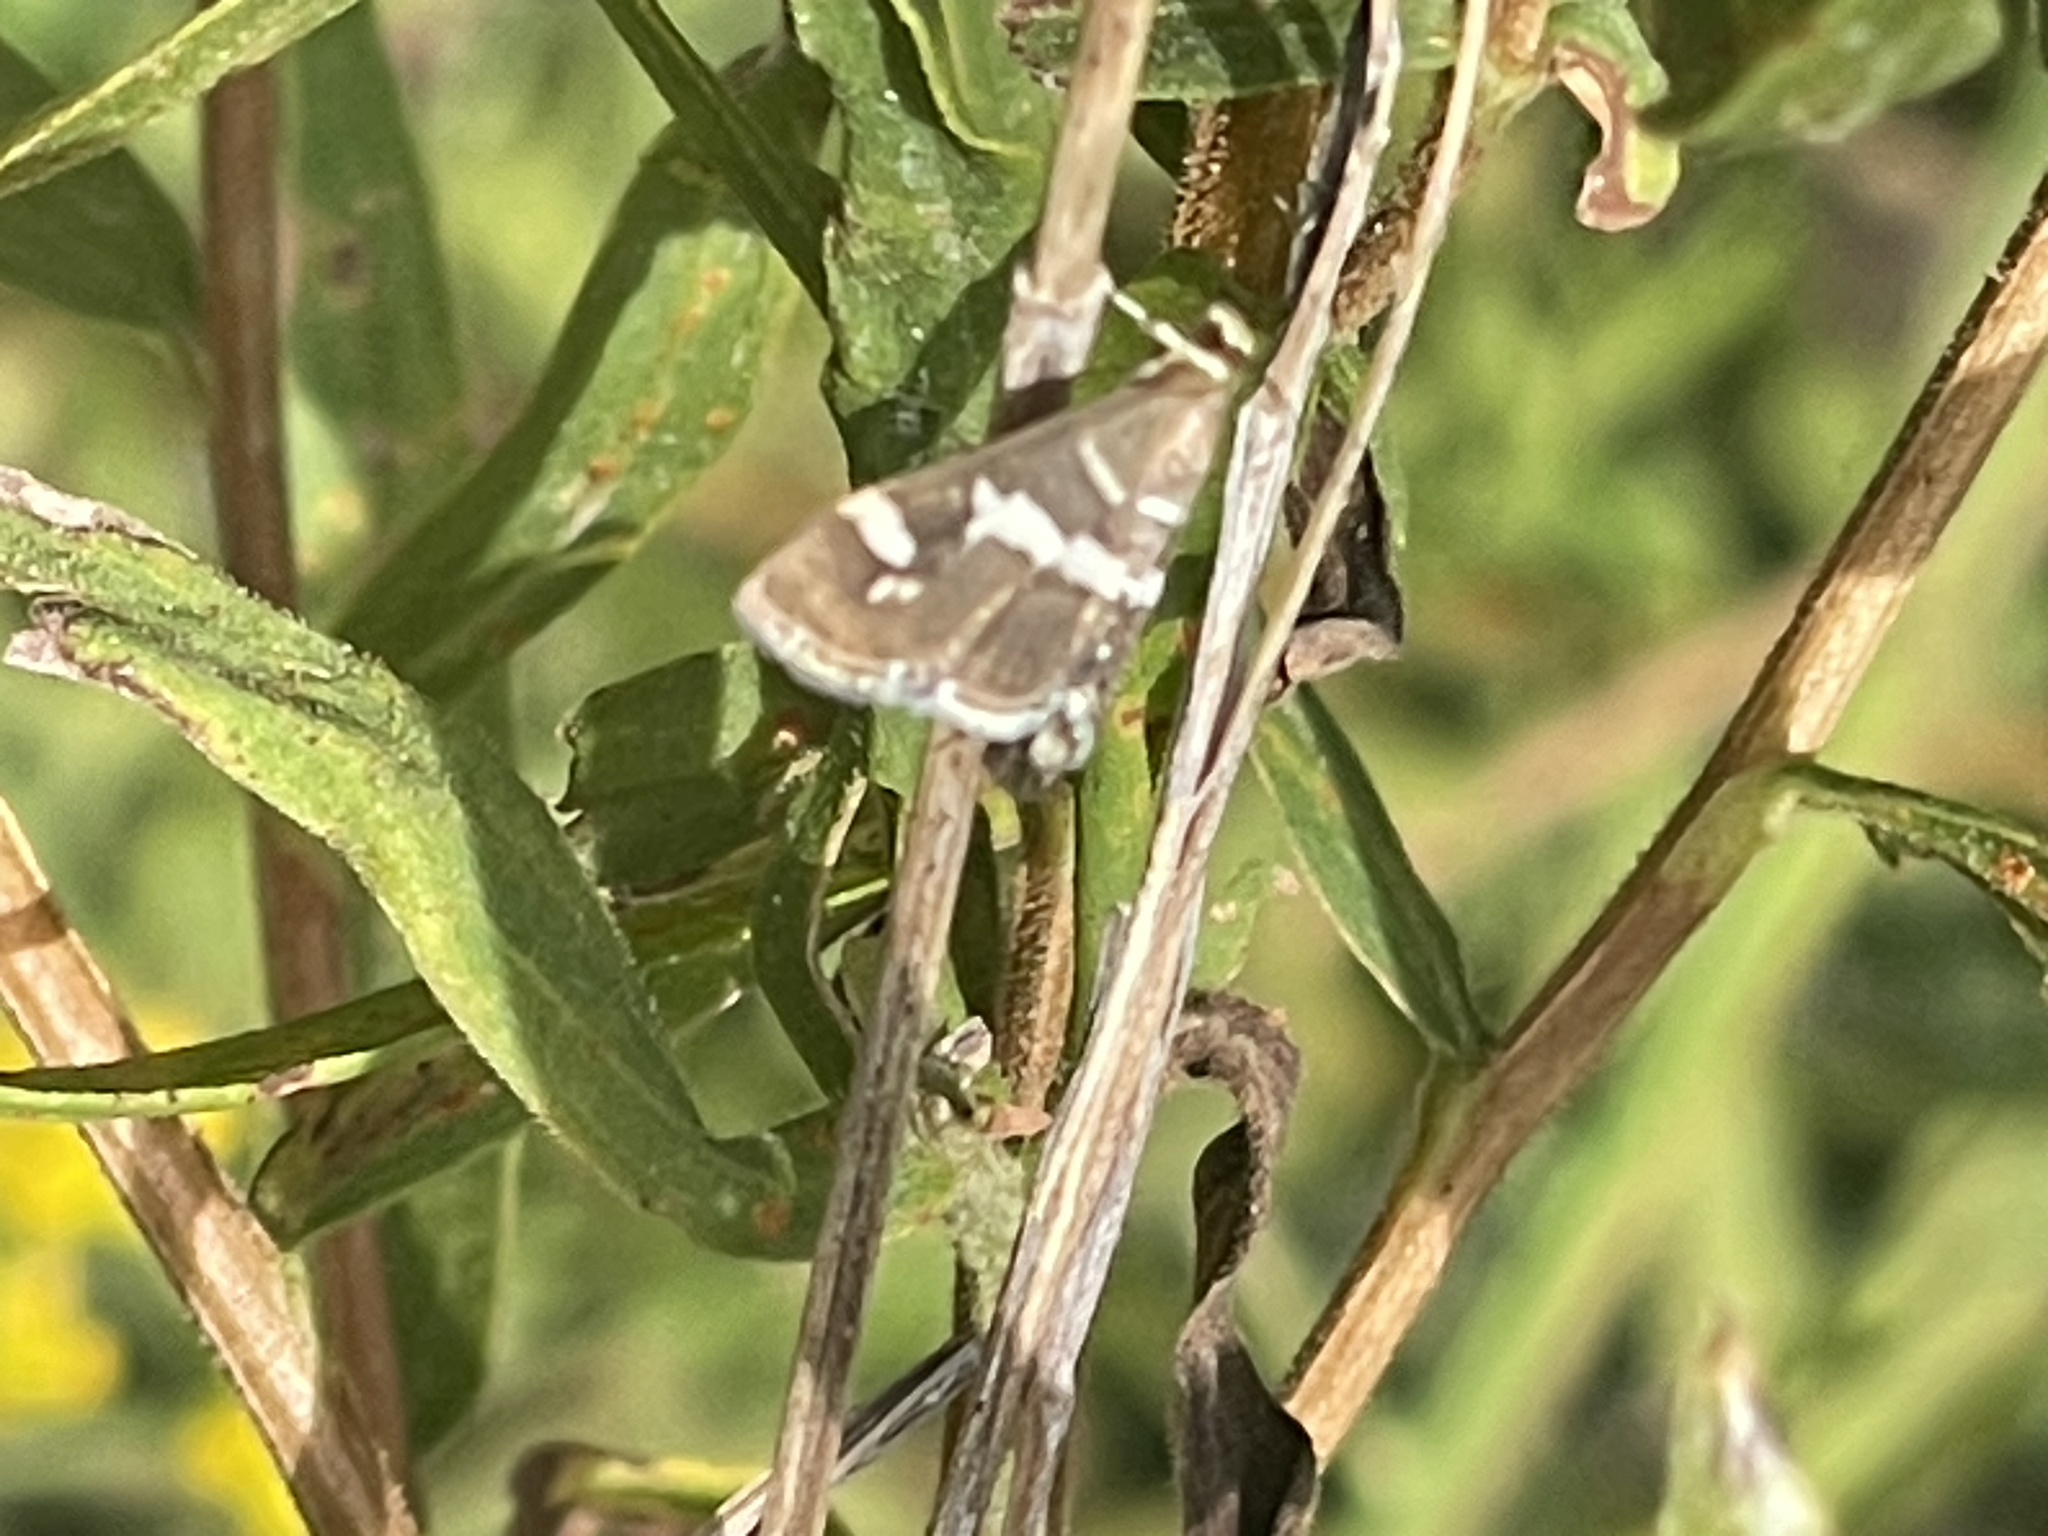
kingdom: Animalia
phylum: Arthropoda
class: Insecta
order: Lepidoptera
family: Crambidae
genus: Spoladea
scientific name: Spoladea recurvalis
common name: Beet webworm moth
